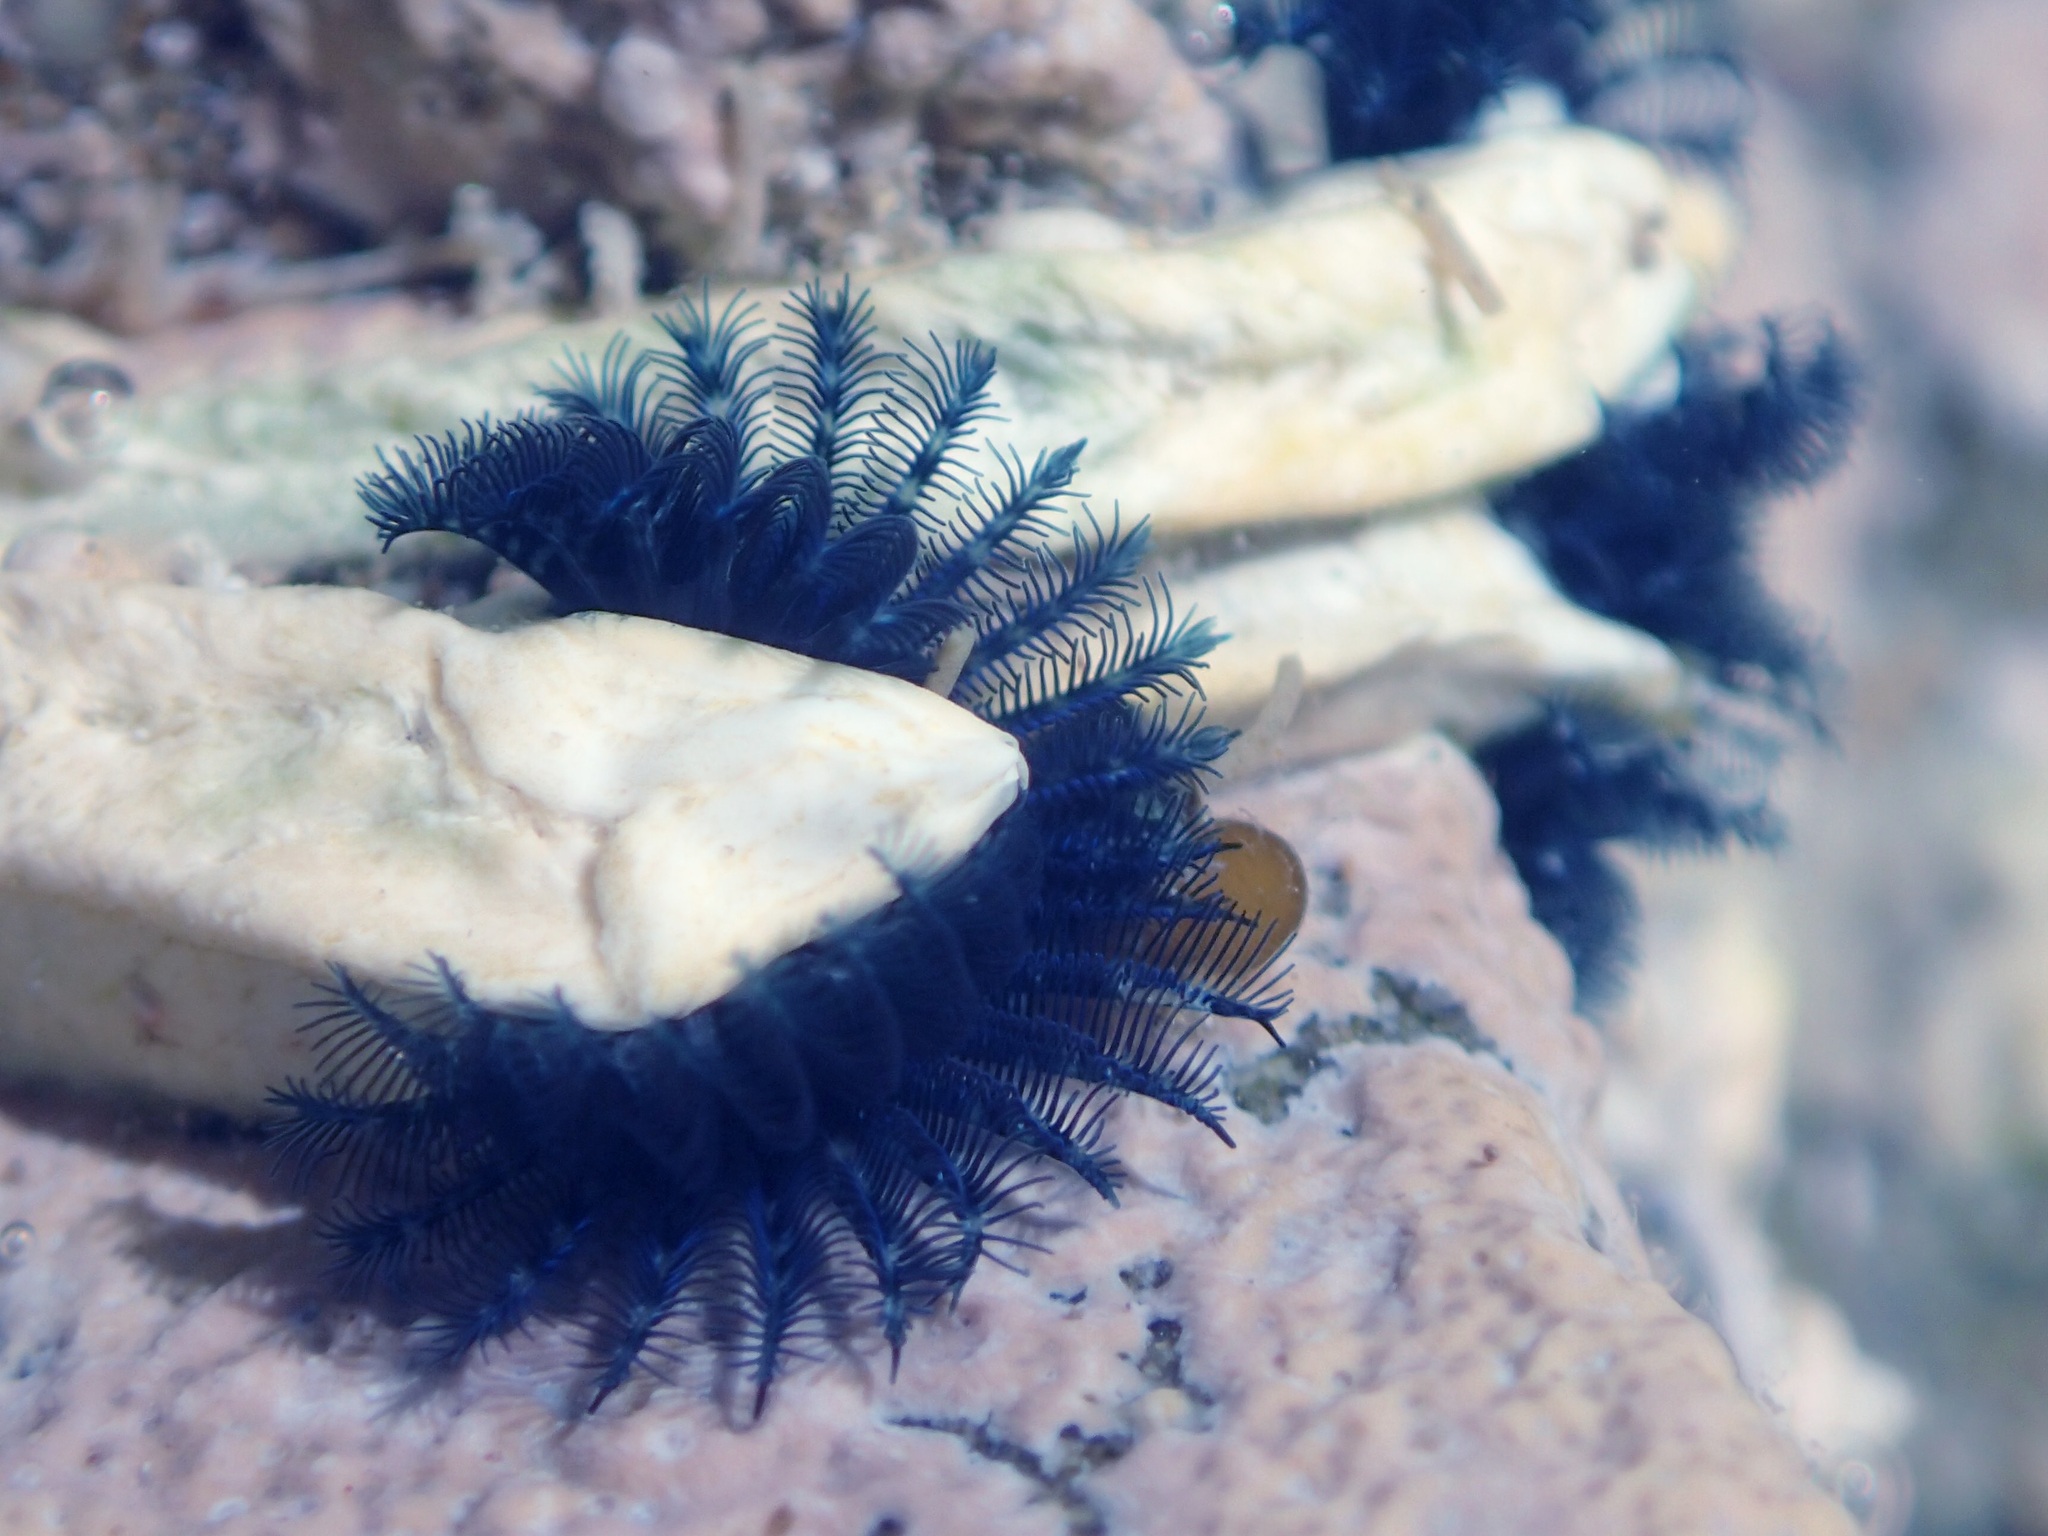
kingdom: Animalia
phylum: Annelida
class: Polychaeta
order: Sabellida
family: Serpulidae
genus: Spirobranchus
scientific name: Spirobranchus cariniferus
